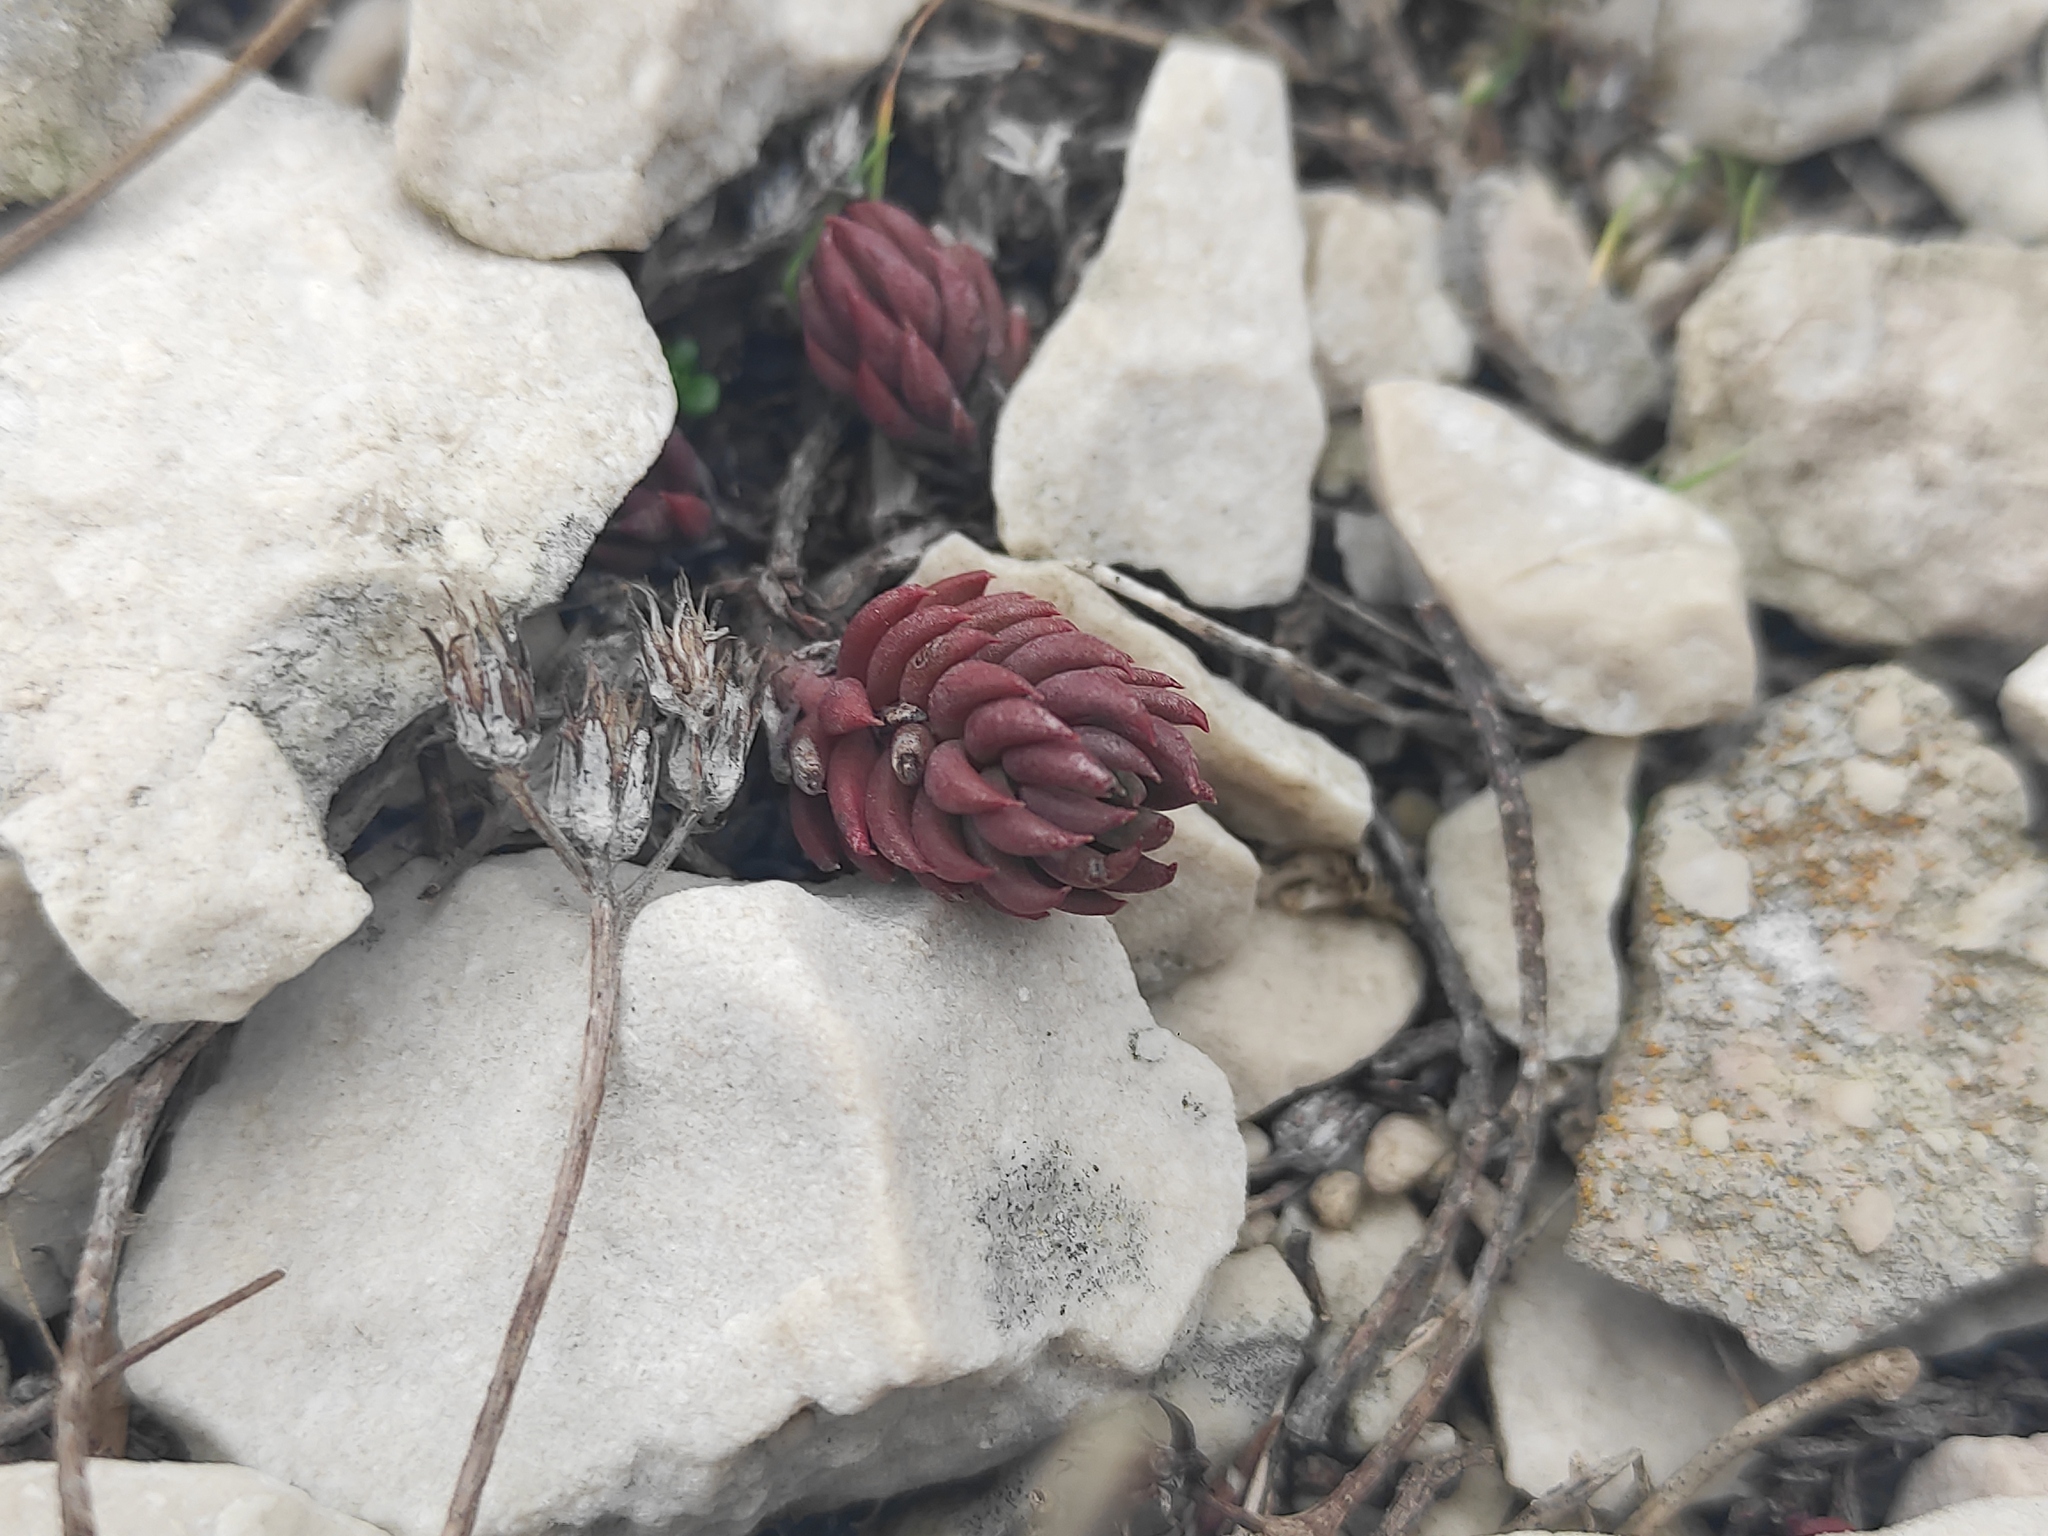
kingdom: Plantae
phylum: Tracheophyta
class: Magnoliopsida
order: Saxifragales
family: Crassulaceae
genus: Petrosedum
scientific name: Petrosedum ochroleucum
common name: European stonecrop
